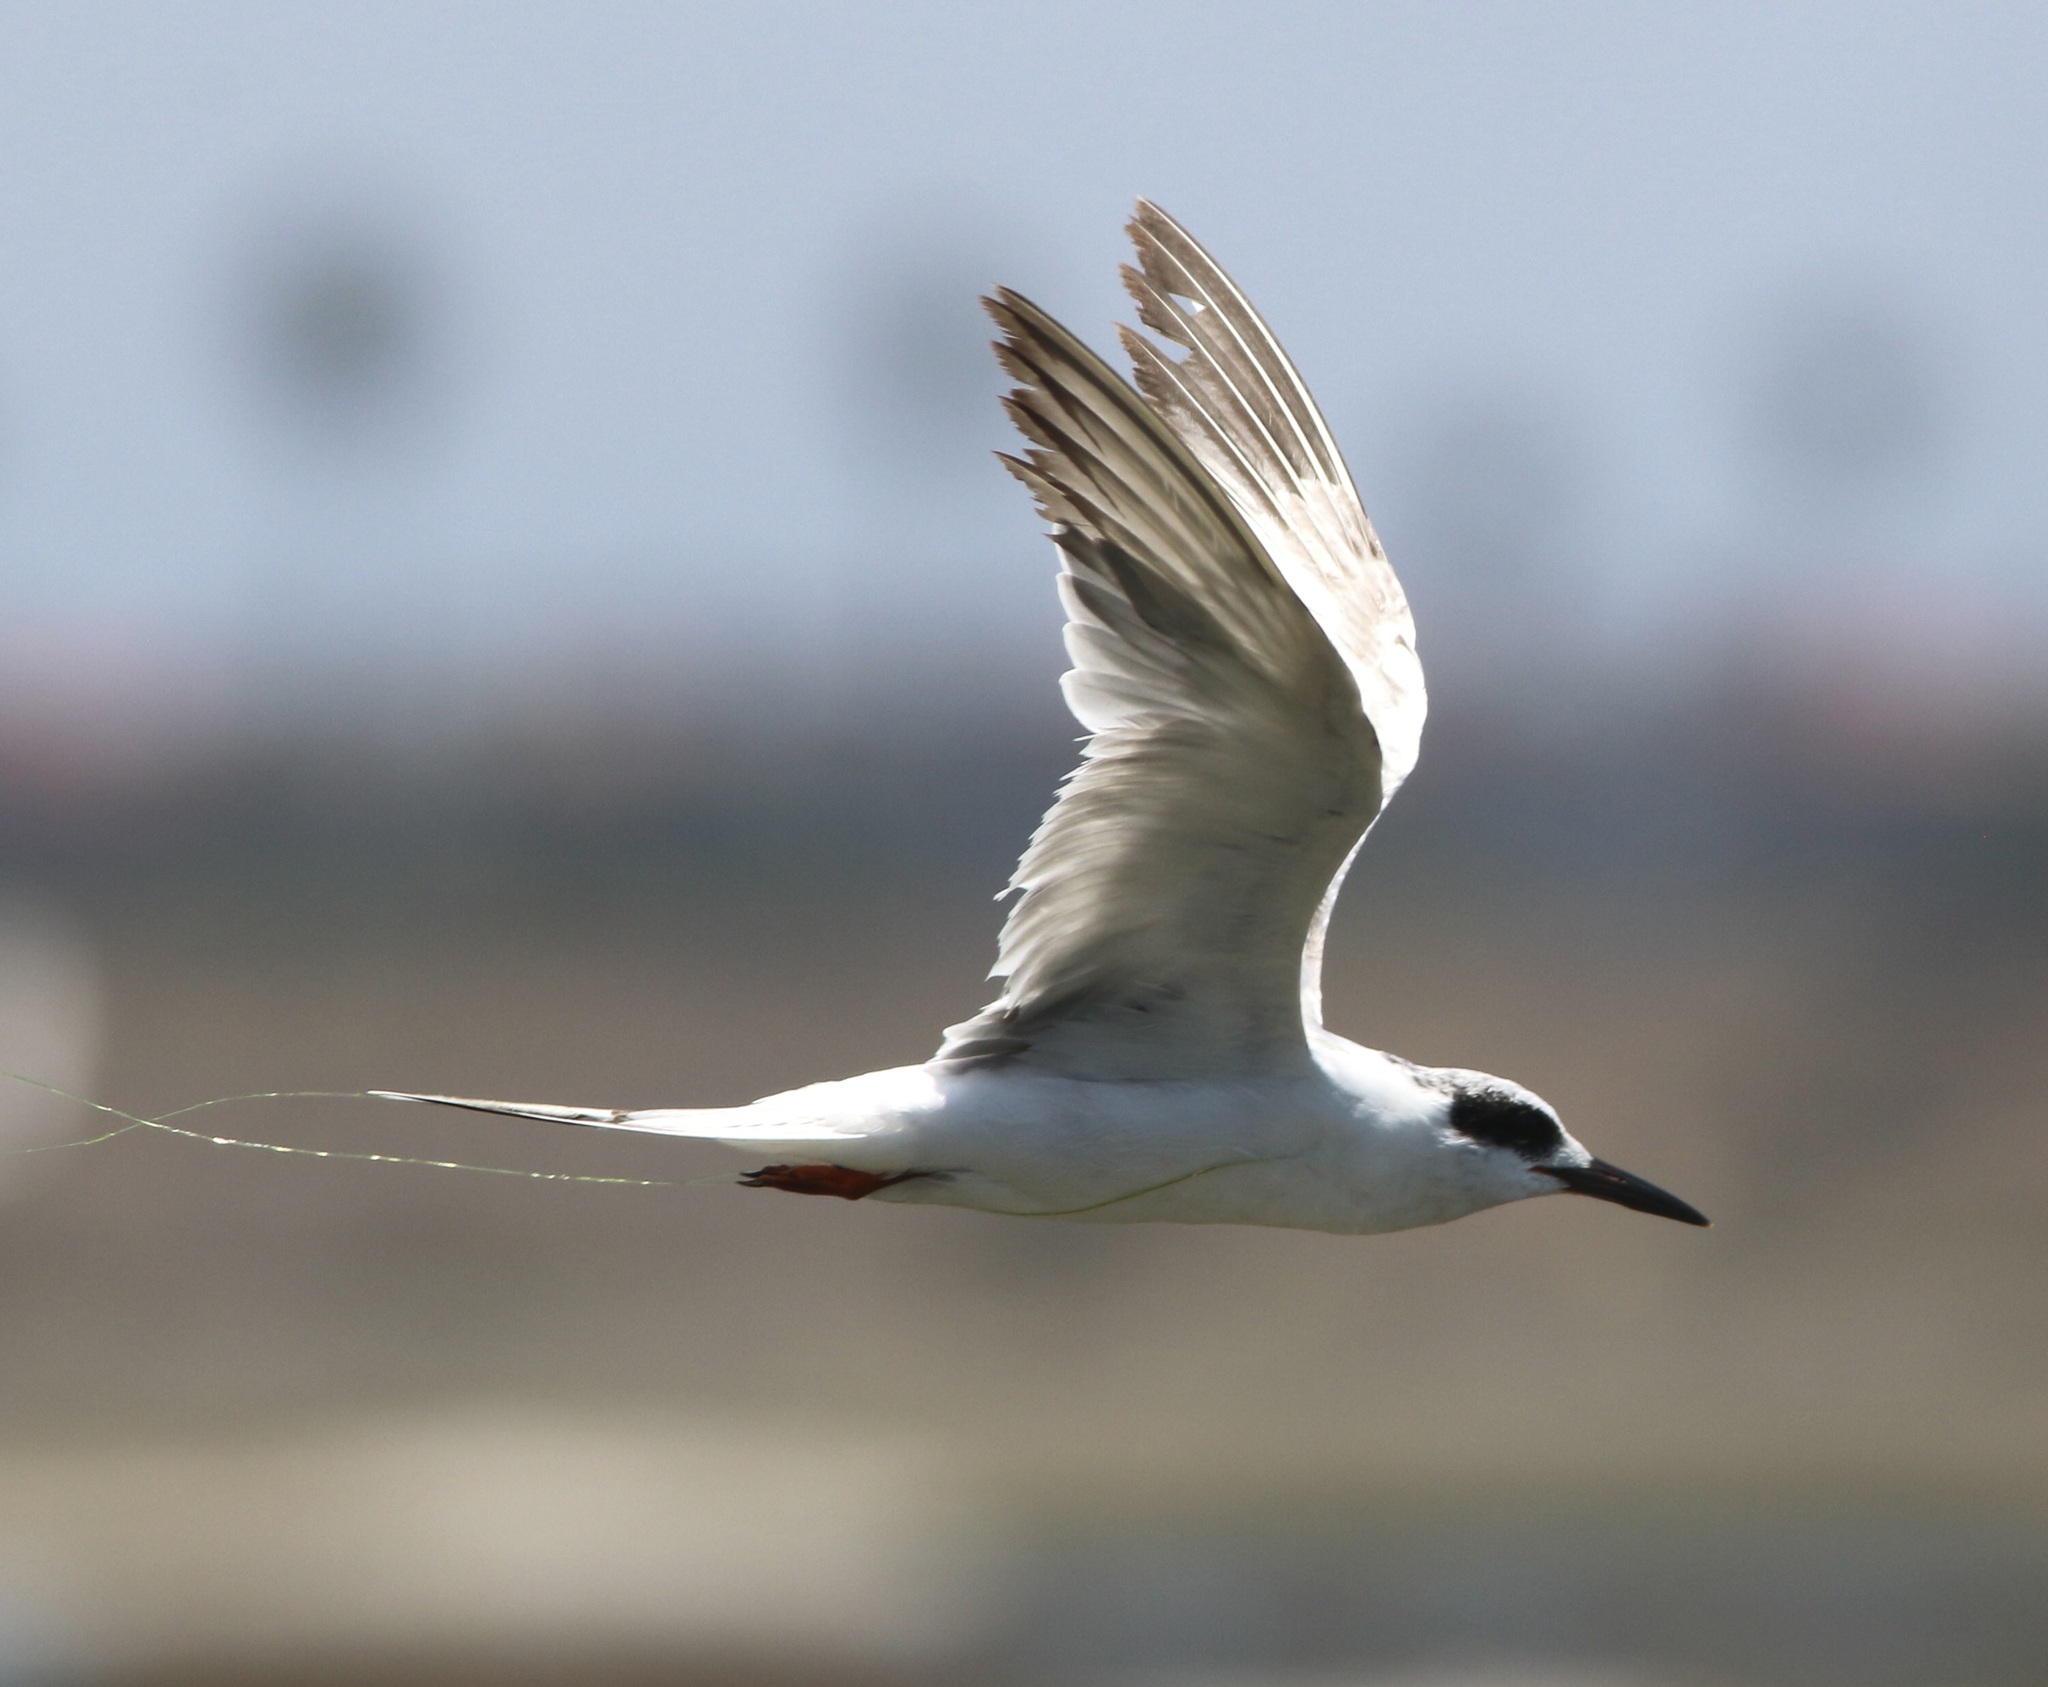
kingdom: Animalia
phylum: Chordata
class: Aves
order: Charadriiformes
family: Laridae
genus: Sterna
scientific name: Sterna forsteri
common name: Forster's tern
